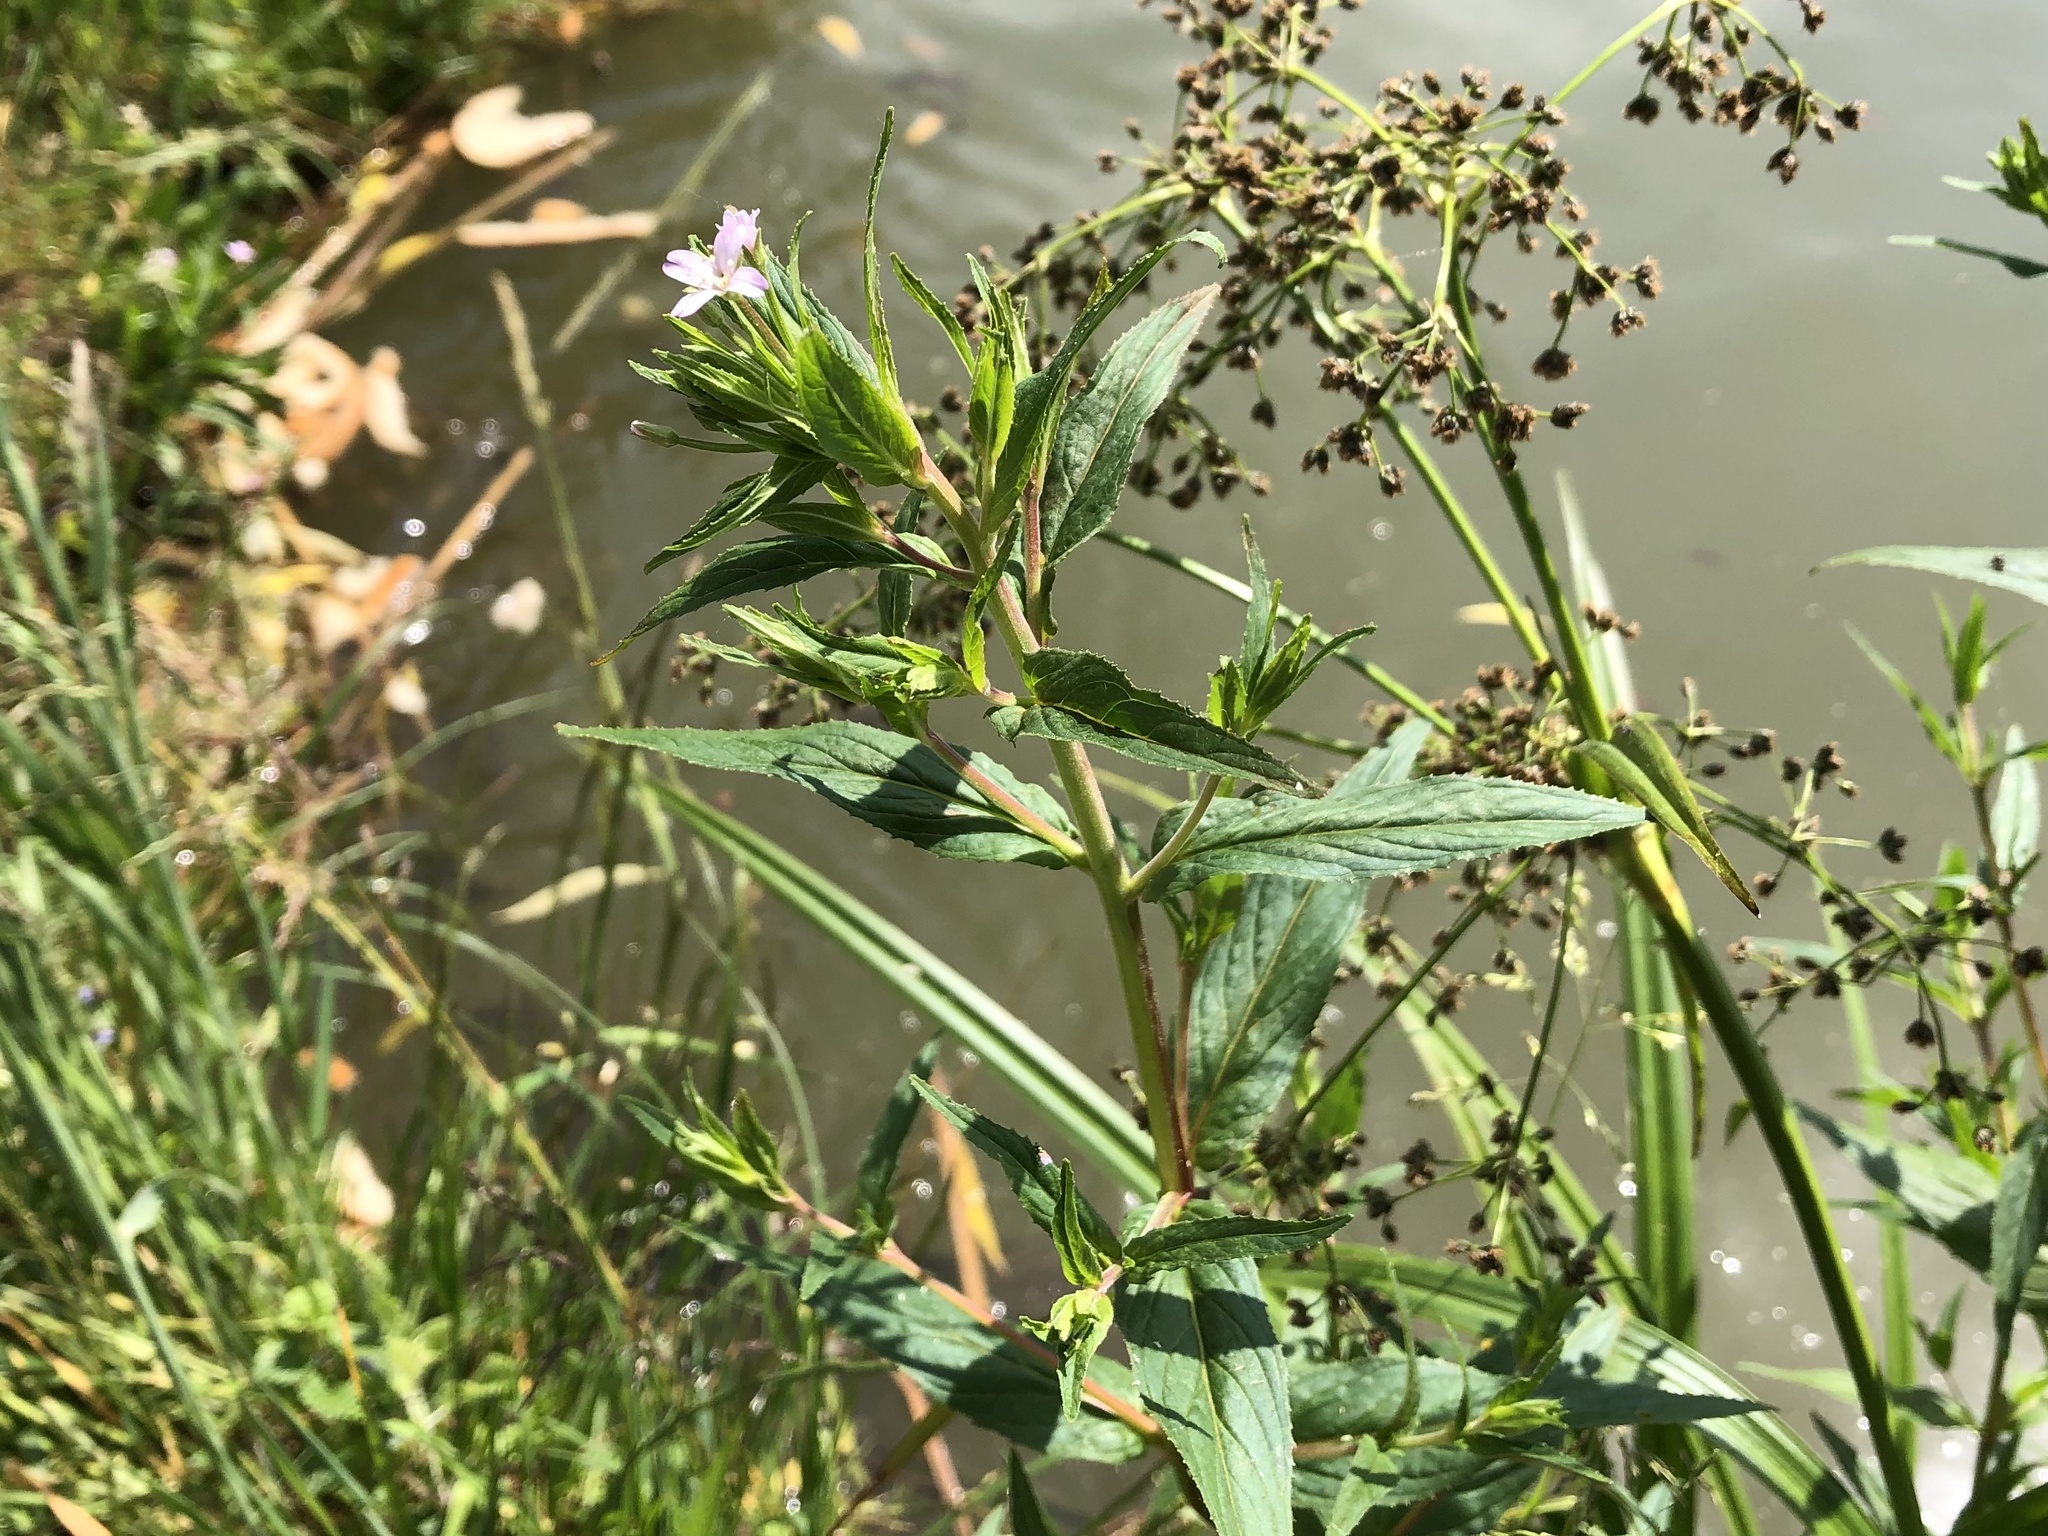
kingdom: Plantae
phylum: Tracheophyta
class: Magnoliopsida
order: Myrtales
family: Onagraceae
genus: Epilobium
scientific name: Epilobium parviflorum
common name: Hoary willowherb
